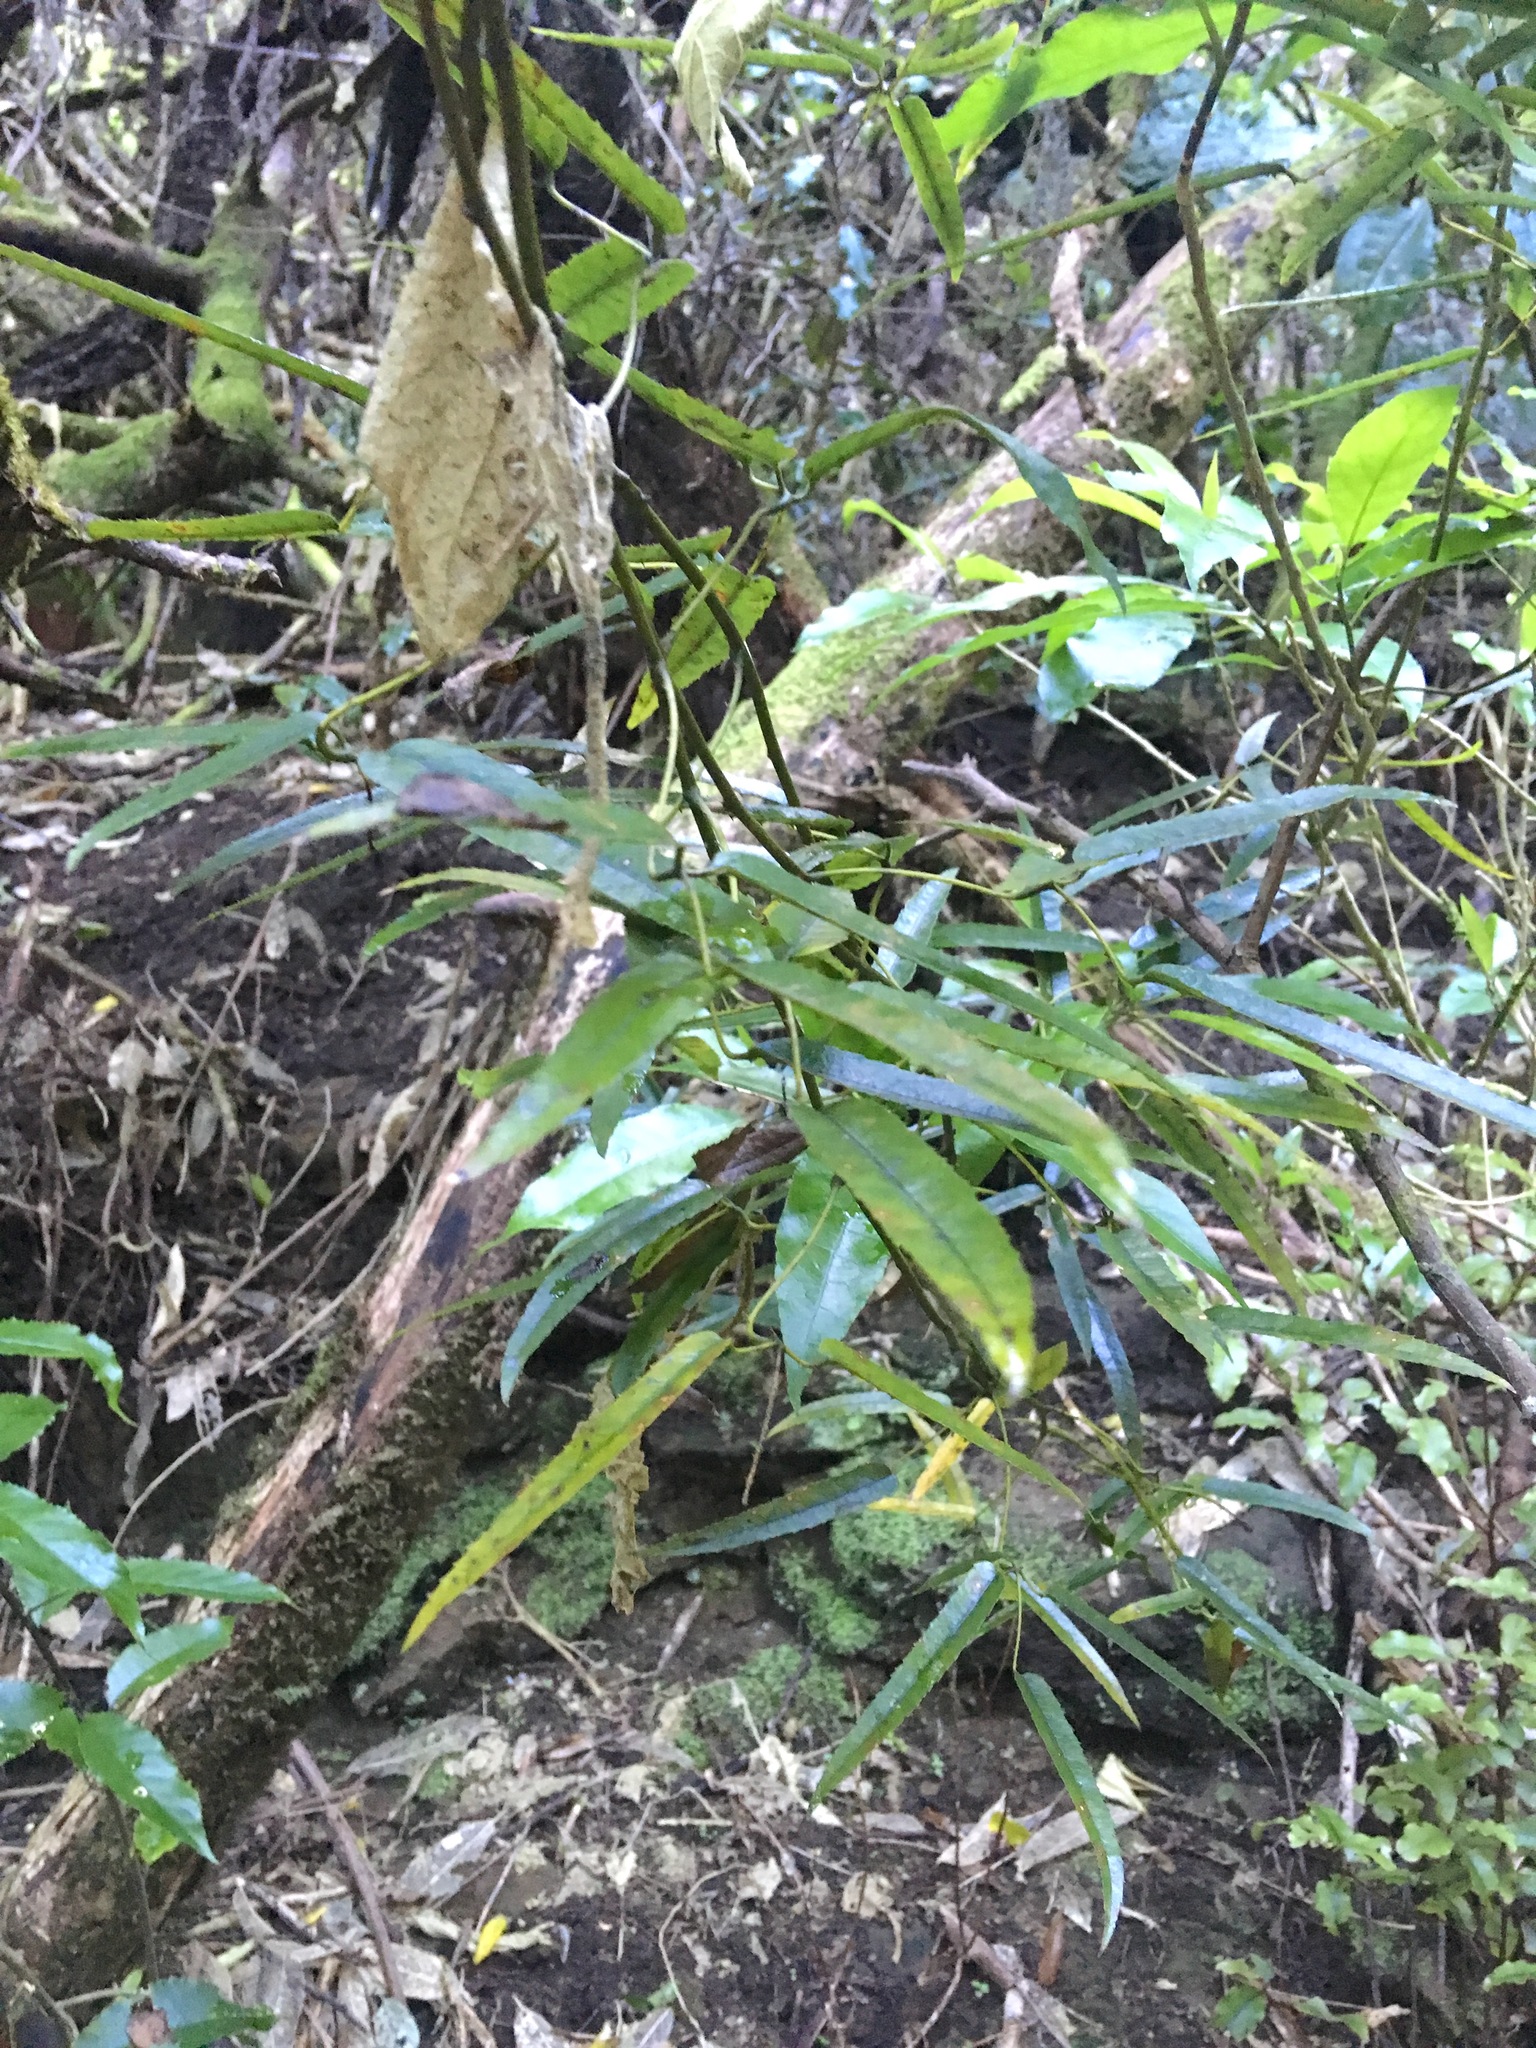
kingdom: Plantae
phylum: Tracheophyta
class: Magnoliopsida
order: Rosales
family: Rosaceae
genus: Rubus
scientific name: Rubus cissoides
